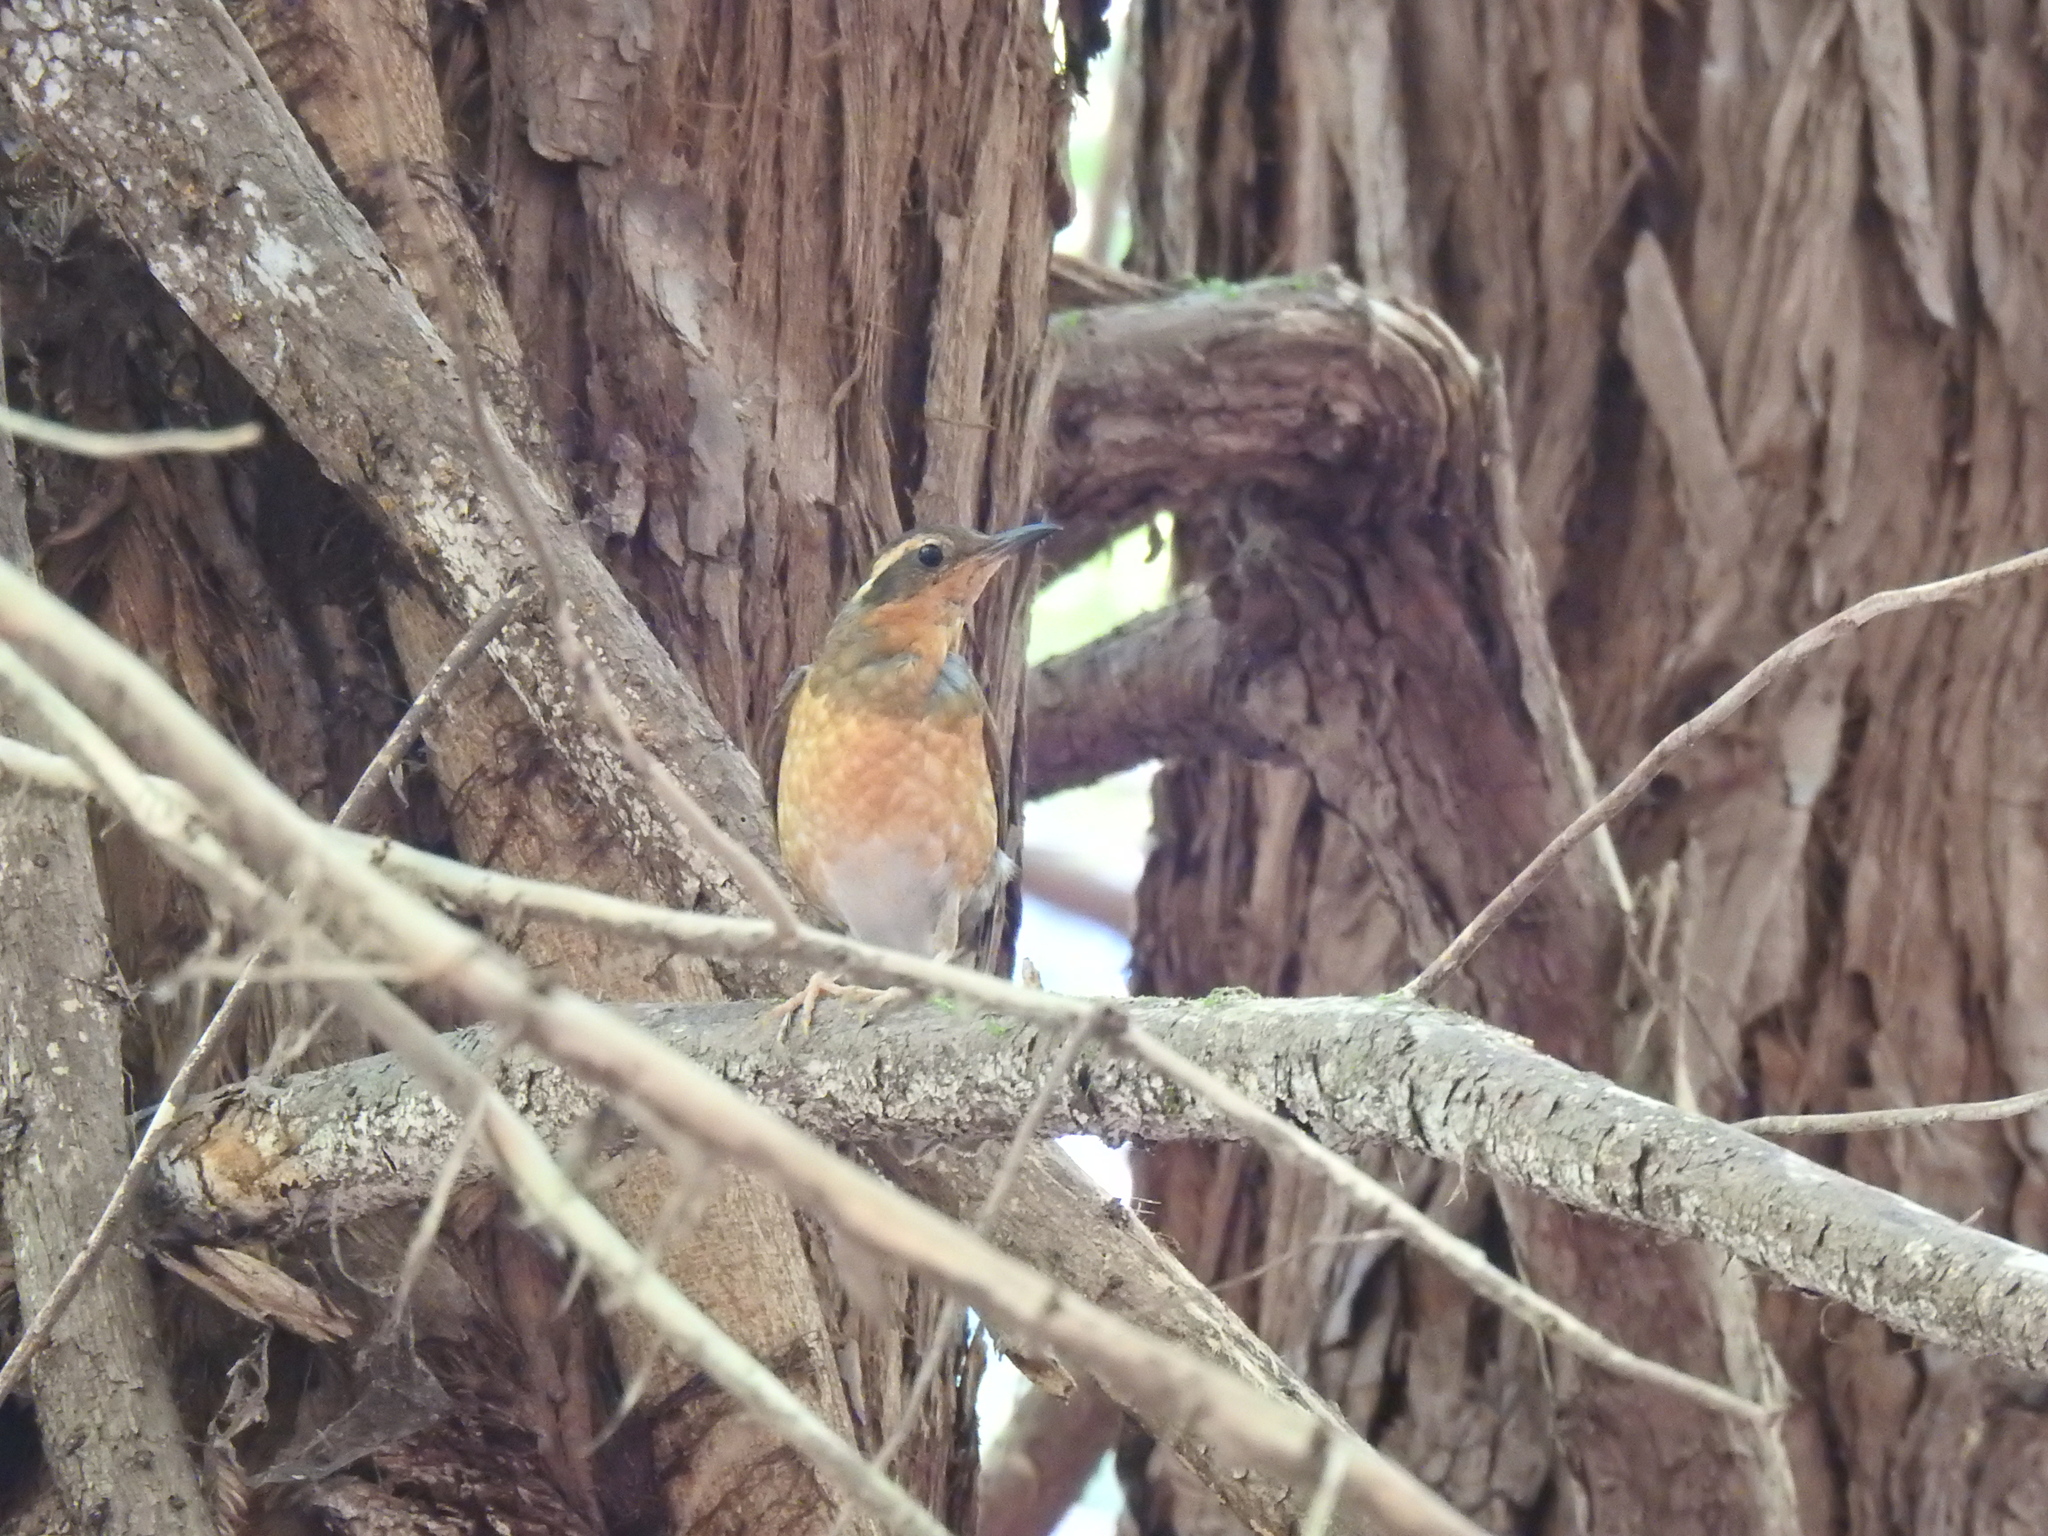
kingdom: Animalia
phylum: Chordata
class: Aves
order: Passeriformes
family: Turdidae
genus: Ixoreus
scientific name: Ixoreus naevius
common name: Varied thrush
